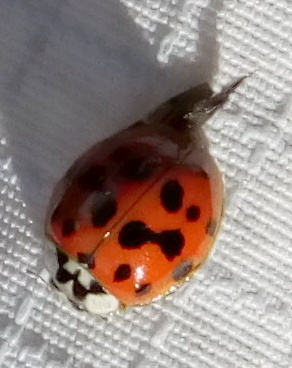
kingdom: Animalia
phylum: Arthropoda
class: Insecta
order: Coleoptera
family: Coccinellidae
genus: Harmonia
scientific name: Harmonia axyridis
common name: Harlequin ladybird
